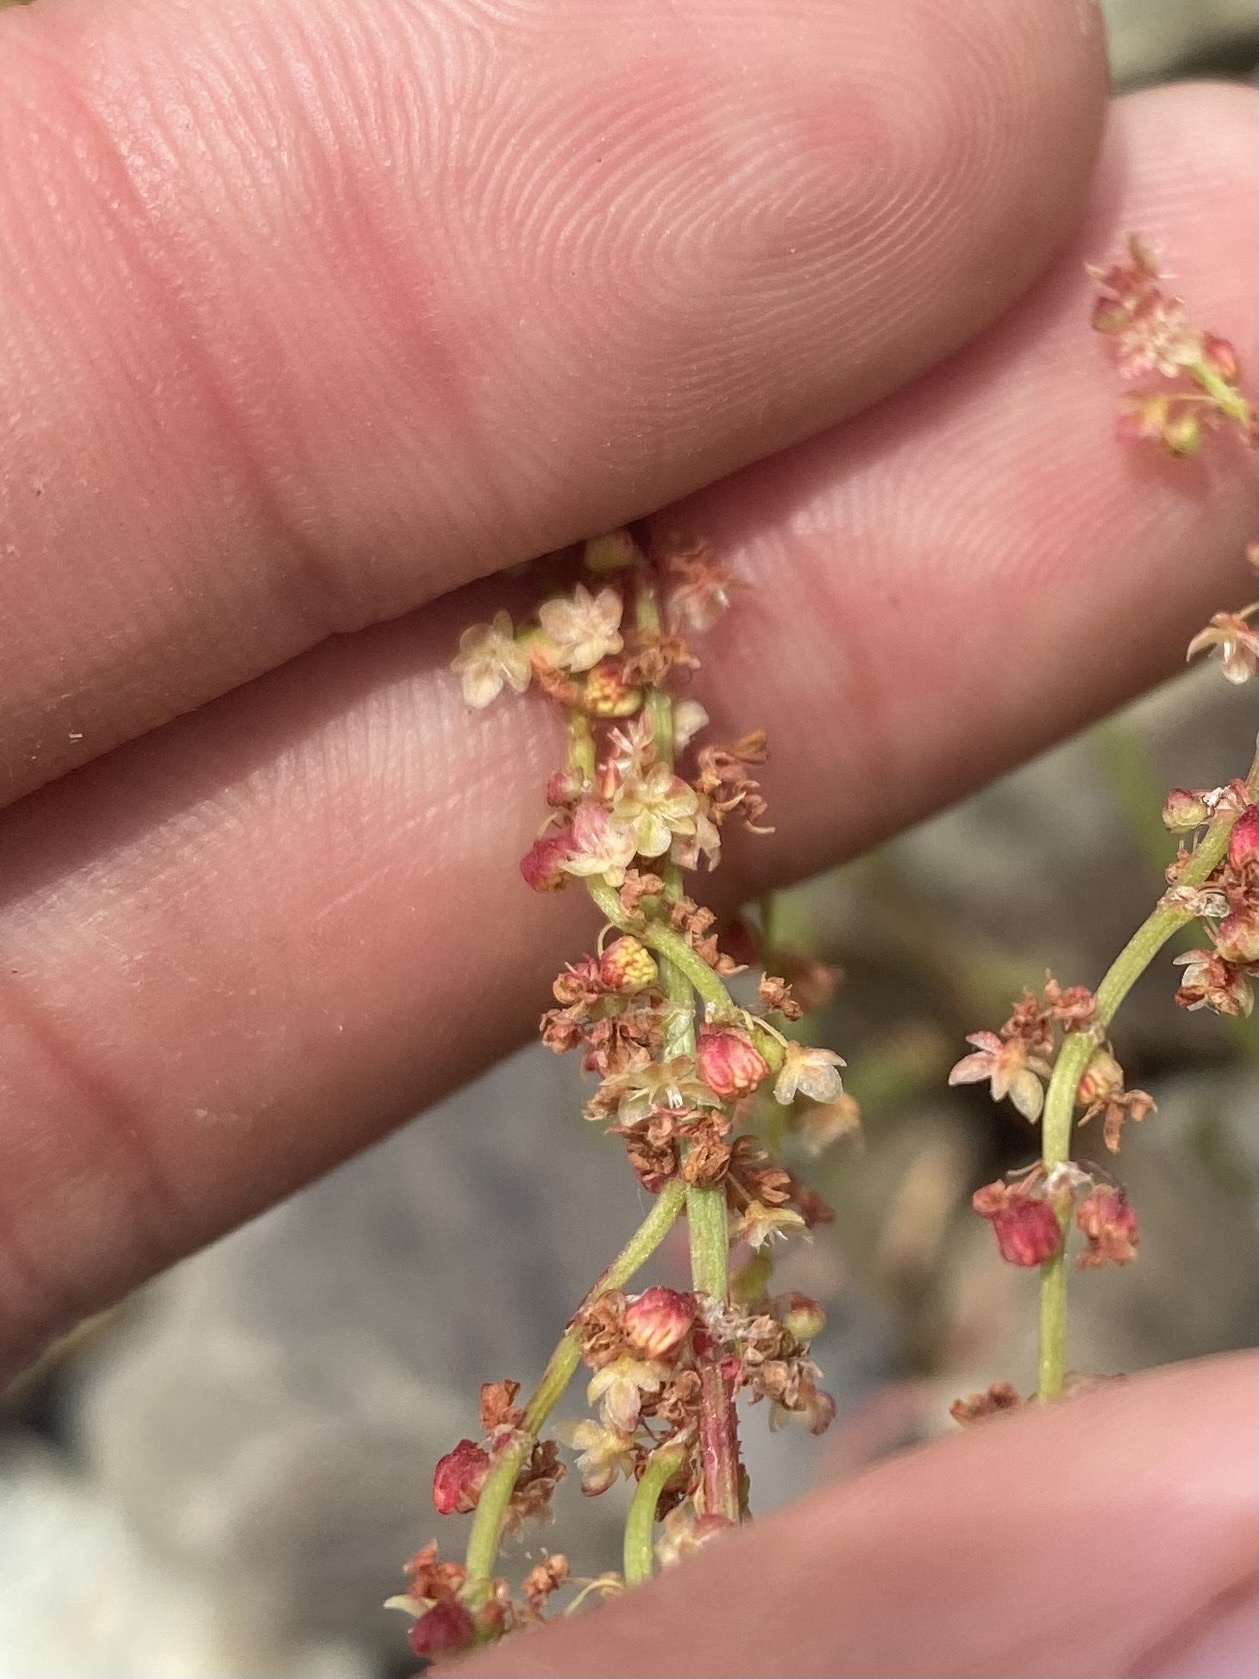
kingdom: Plantae
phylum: Tracheophyta
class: Magnoliopsida
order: Caryophyllales
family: Polygonaceae
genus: Rumex
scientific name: Rumex acetosella
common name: Common sheep sorrel
